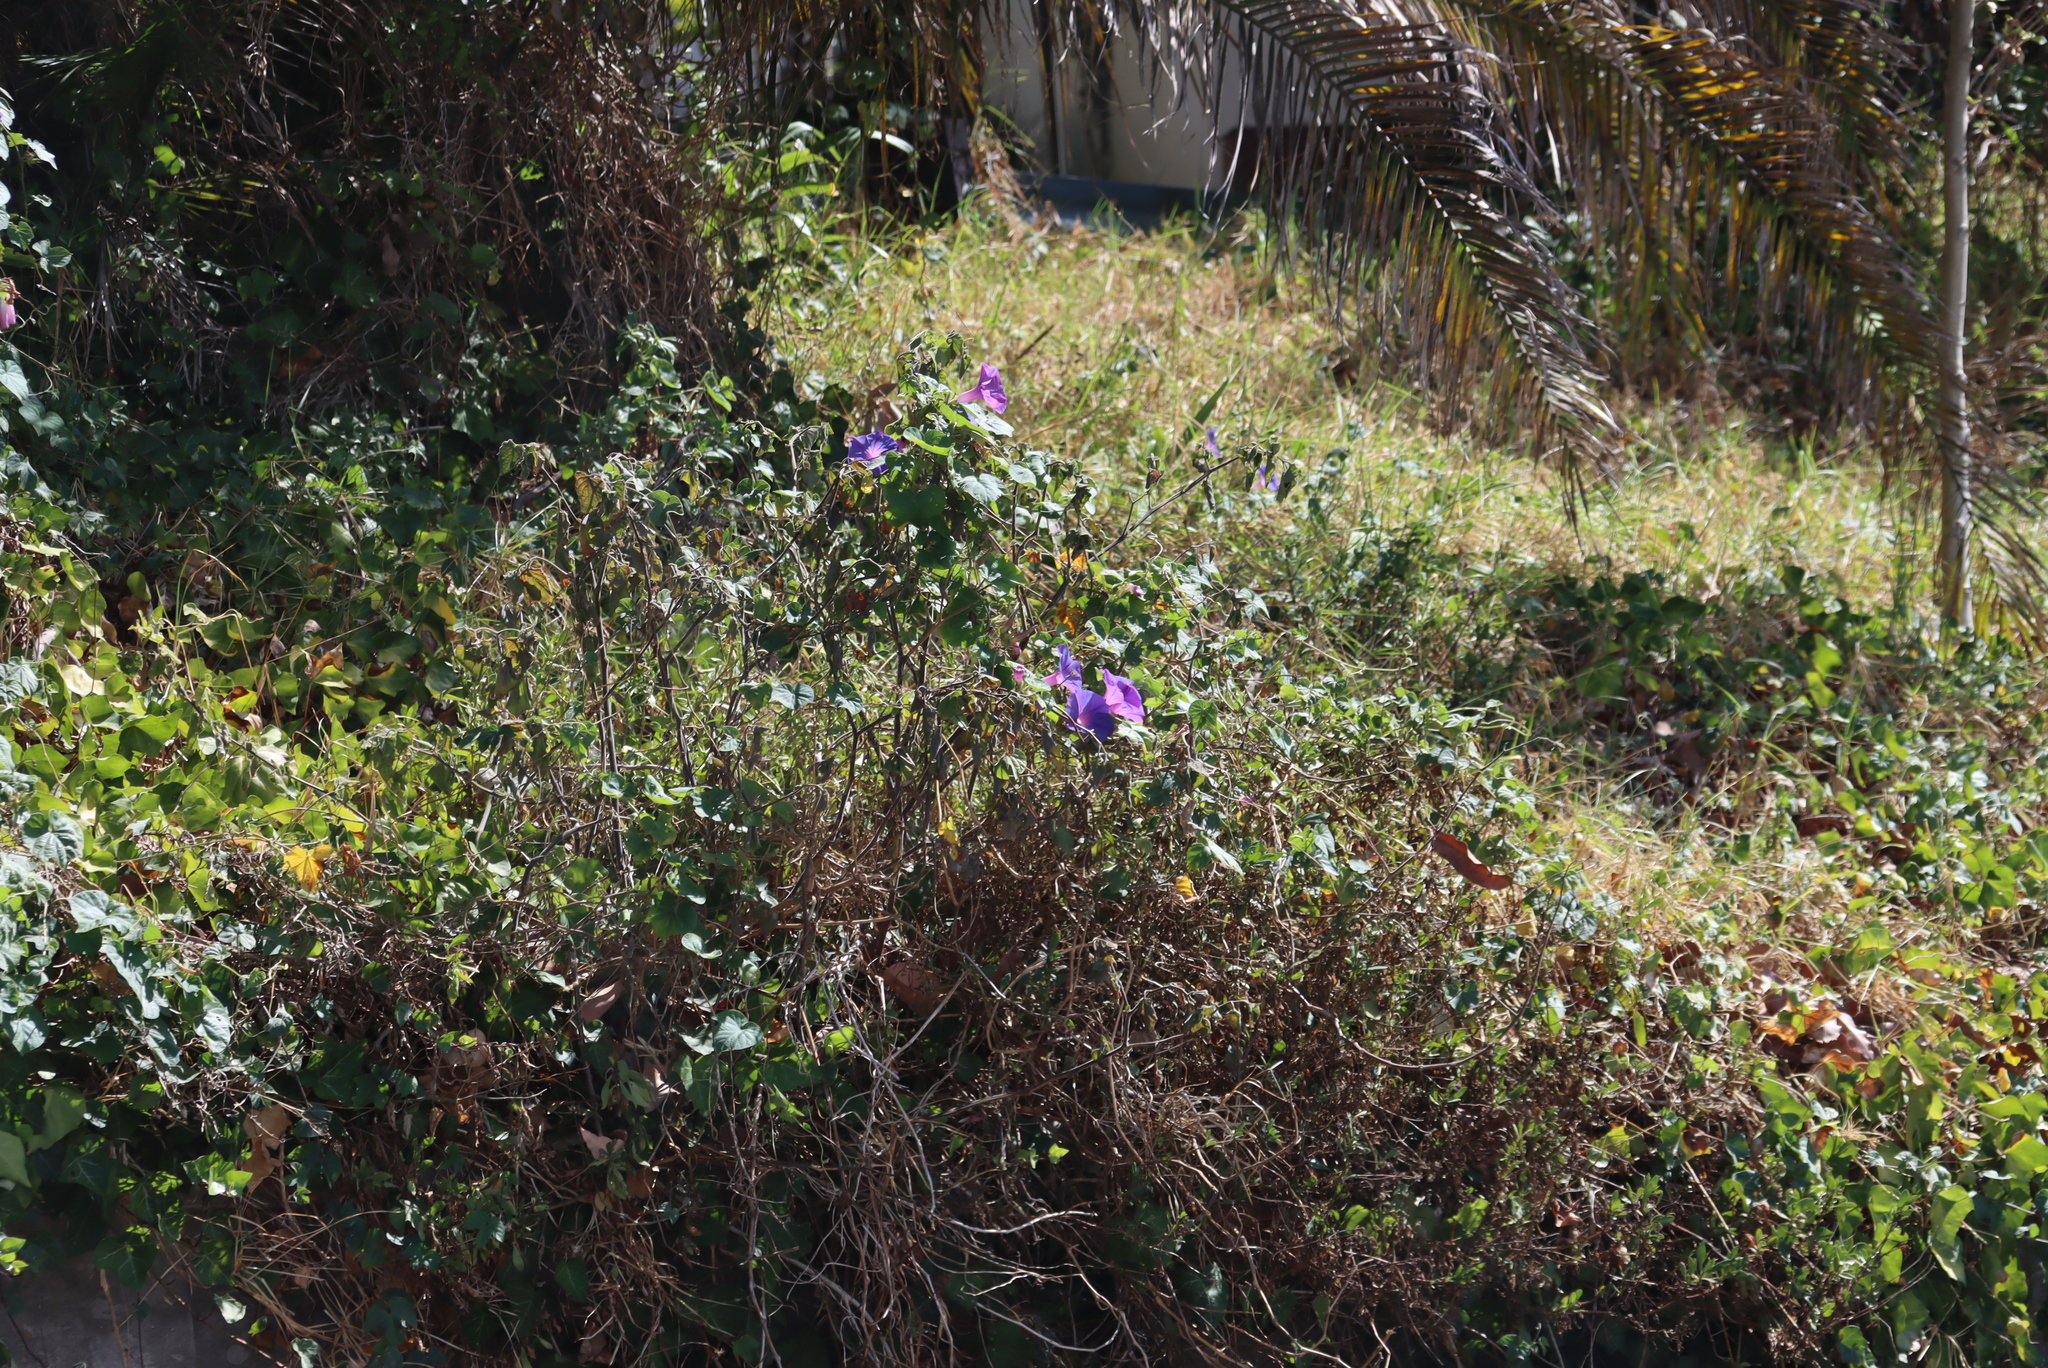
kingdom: Plantae
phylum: Tracheophyta
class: Magnoliopsida
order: Solanales
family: Convolvulaceae
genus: Ipomoea
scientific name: Ipomoea cairica
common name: Mile a minute vine
